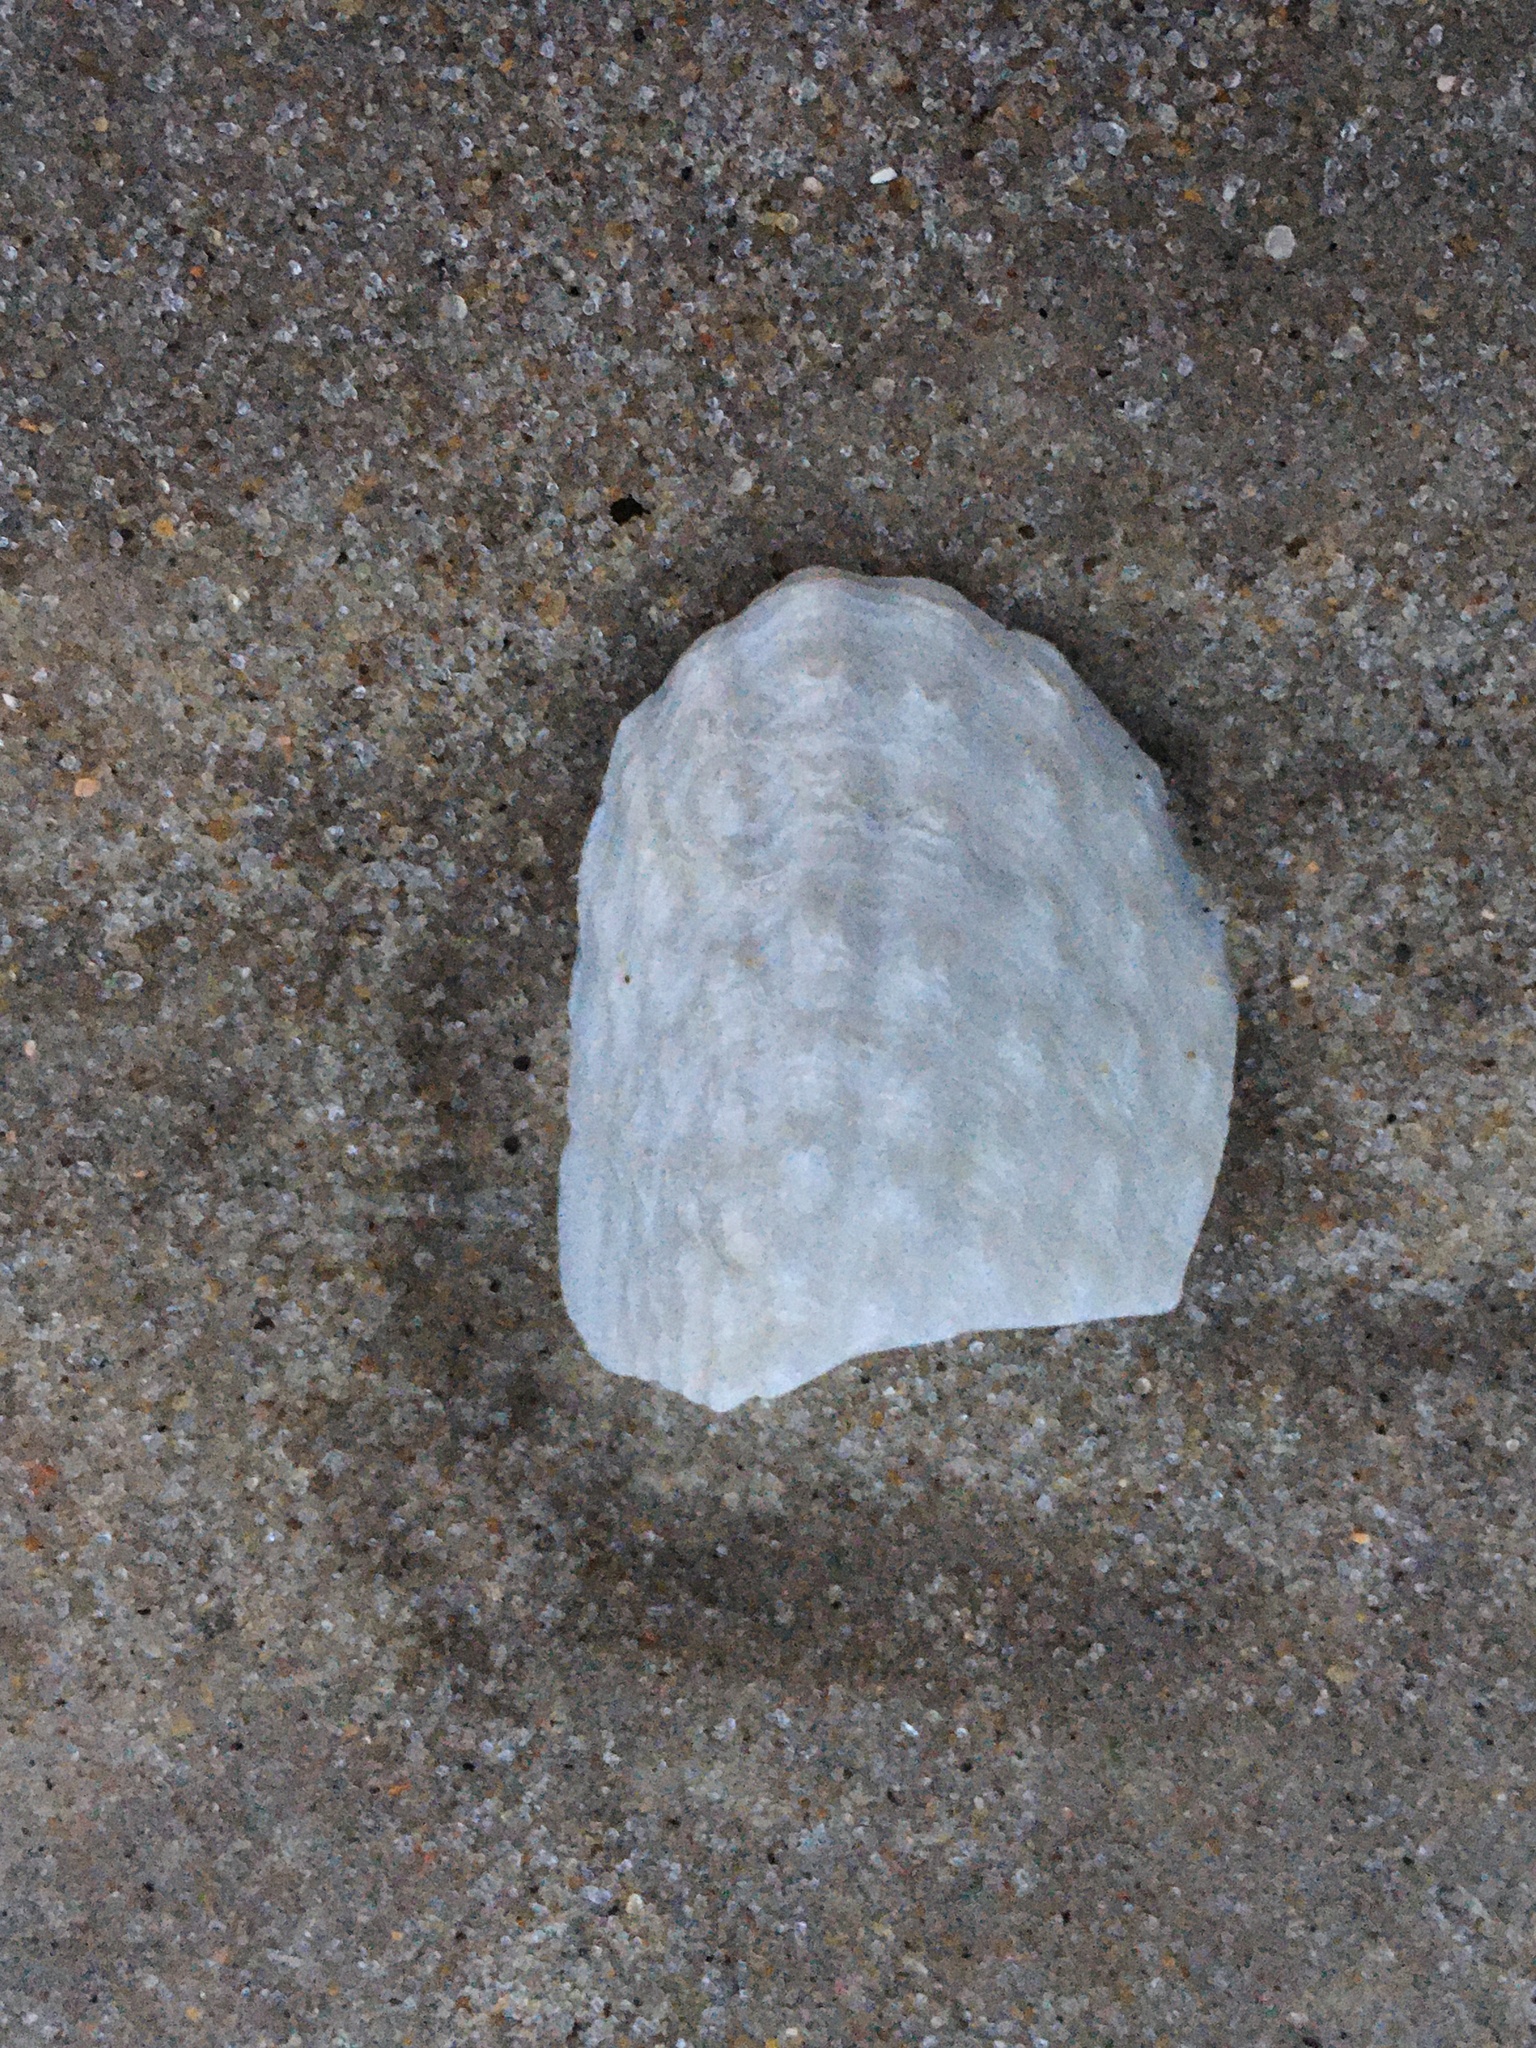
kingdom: Animalia
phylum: Mollusca
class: Bivalvia
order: Myida
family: Pholadidae
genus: Cyrtopleura
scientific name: Cyrtopleura costata
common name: Angel wing
